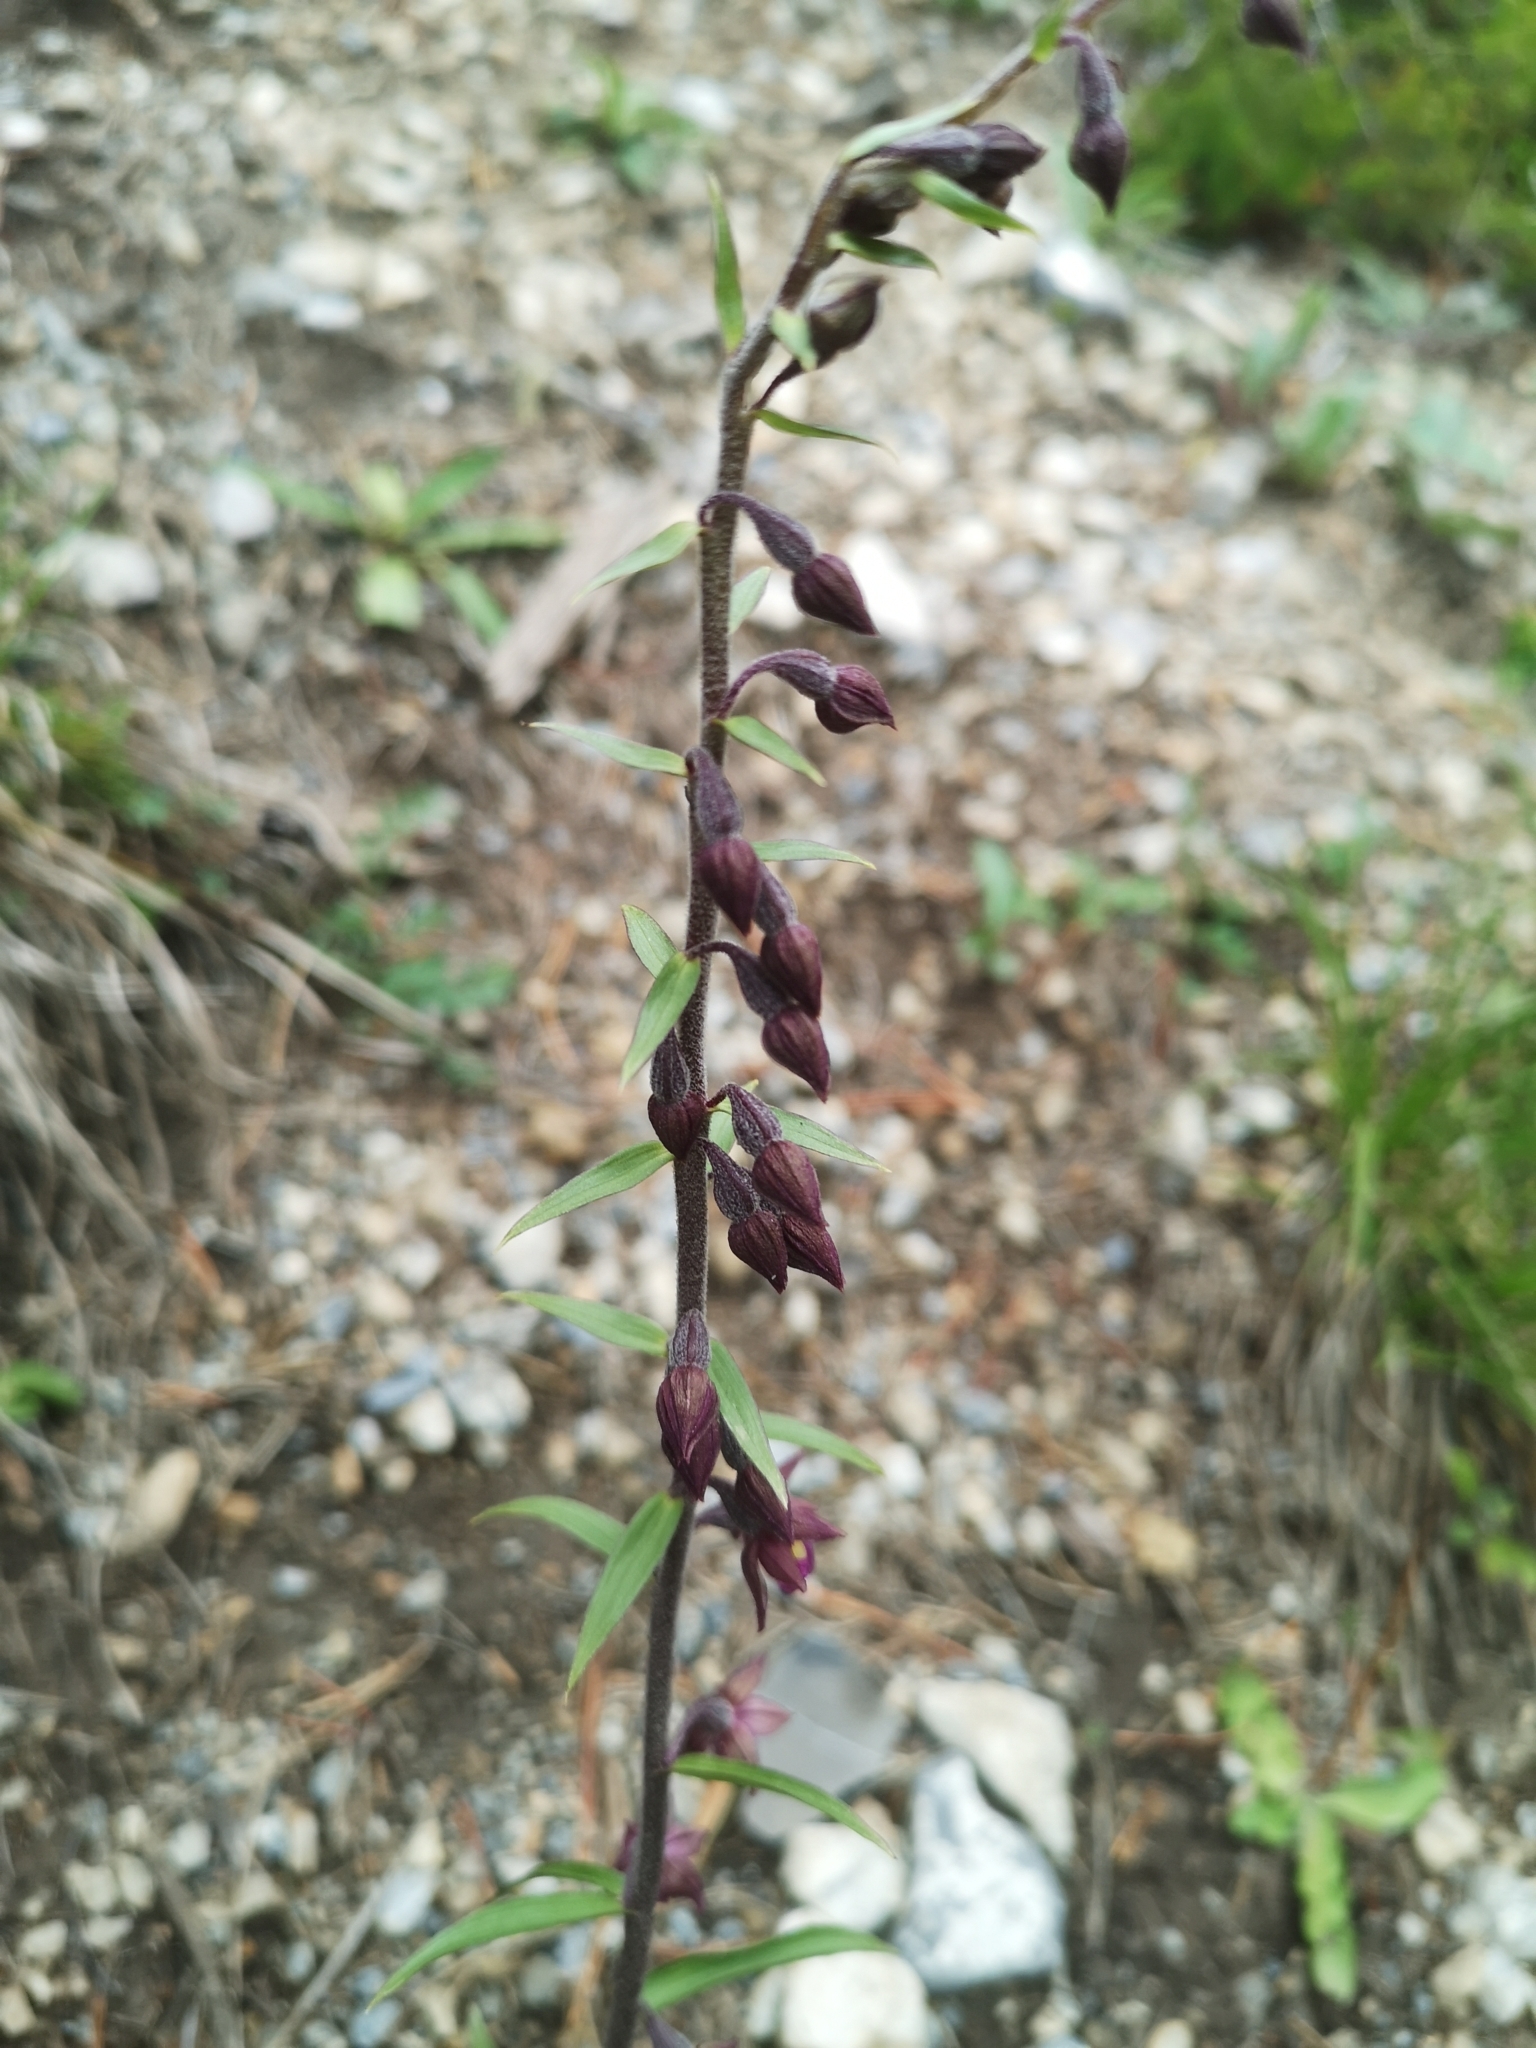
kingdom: Plantae
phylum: Tracheophyta
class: Liliopsida
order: Asparagales
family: Orchidaceae
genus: Epipactis
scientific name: Epipactis atrorubens
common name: Dark-red helleborine
